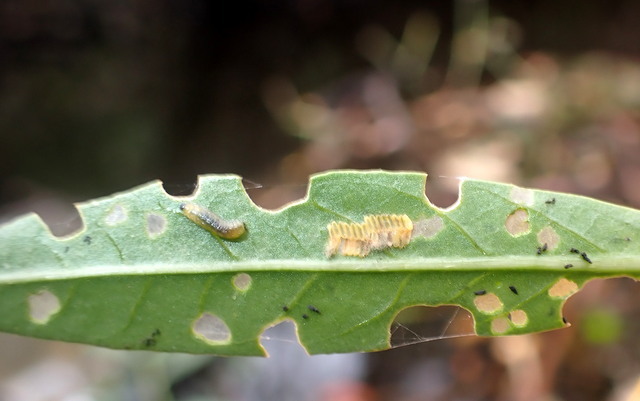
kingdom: Animalia
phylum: Arthropoda
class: Insecta
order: Coleoptera
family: Chrysomelidae
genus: Agasicles
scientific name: Agasicles hygrophila
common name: Alligatorweed flea beetle
